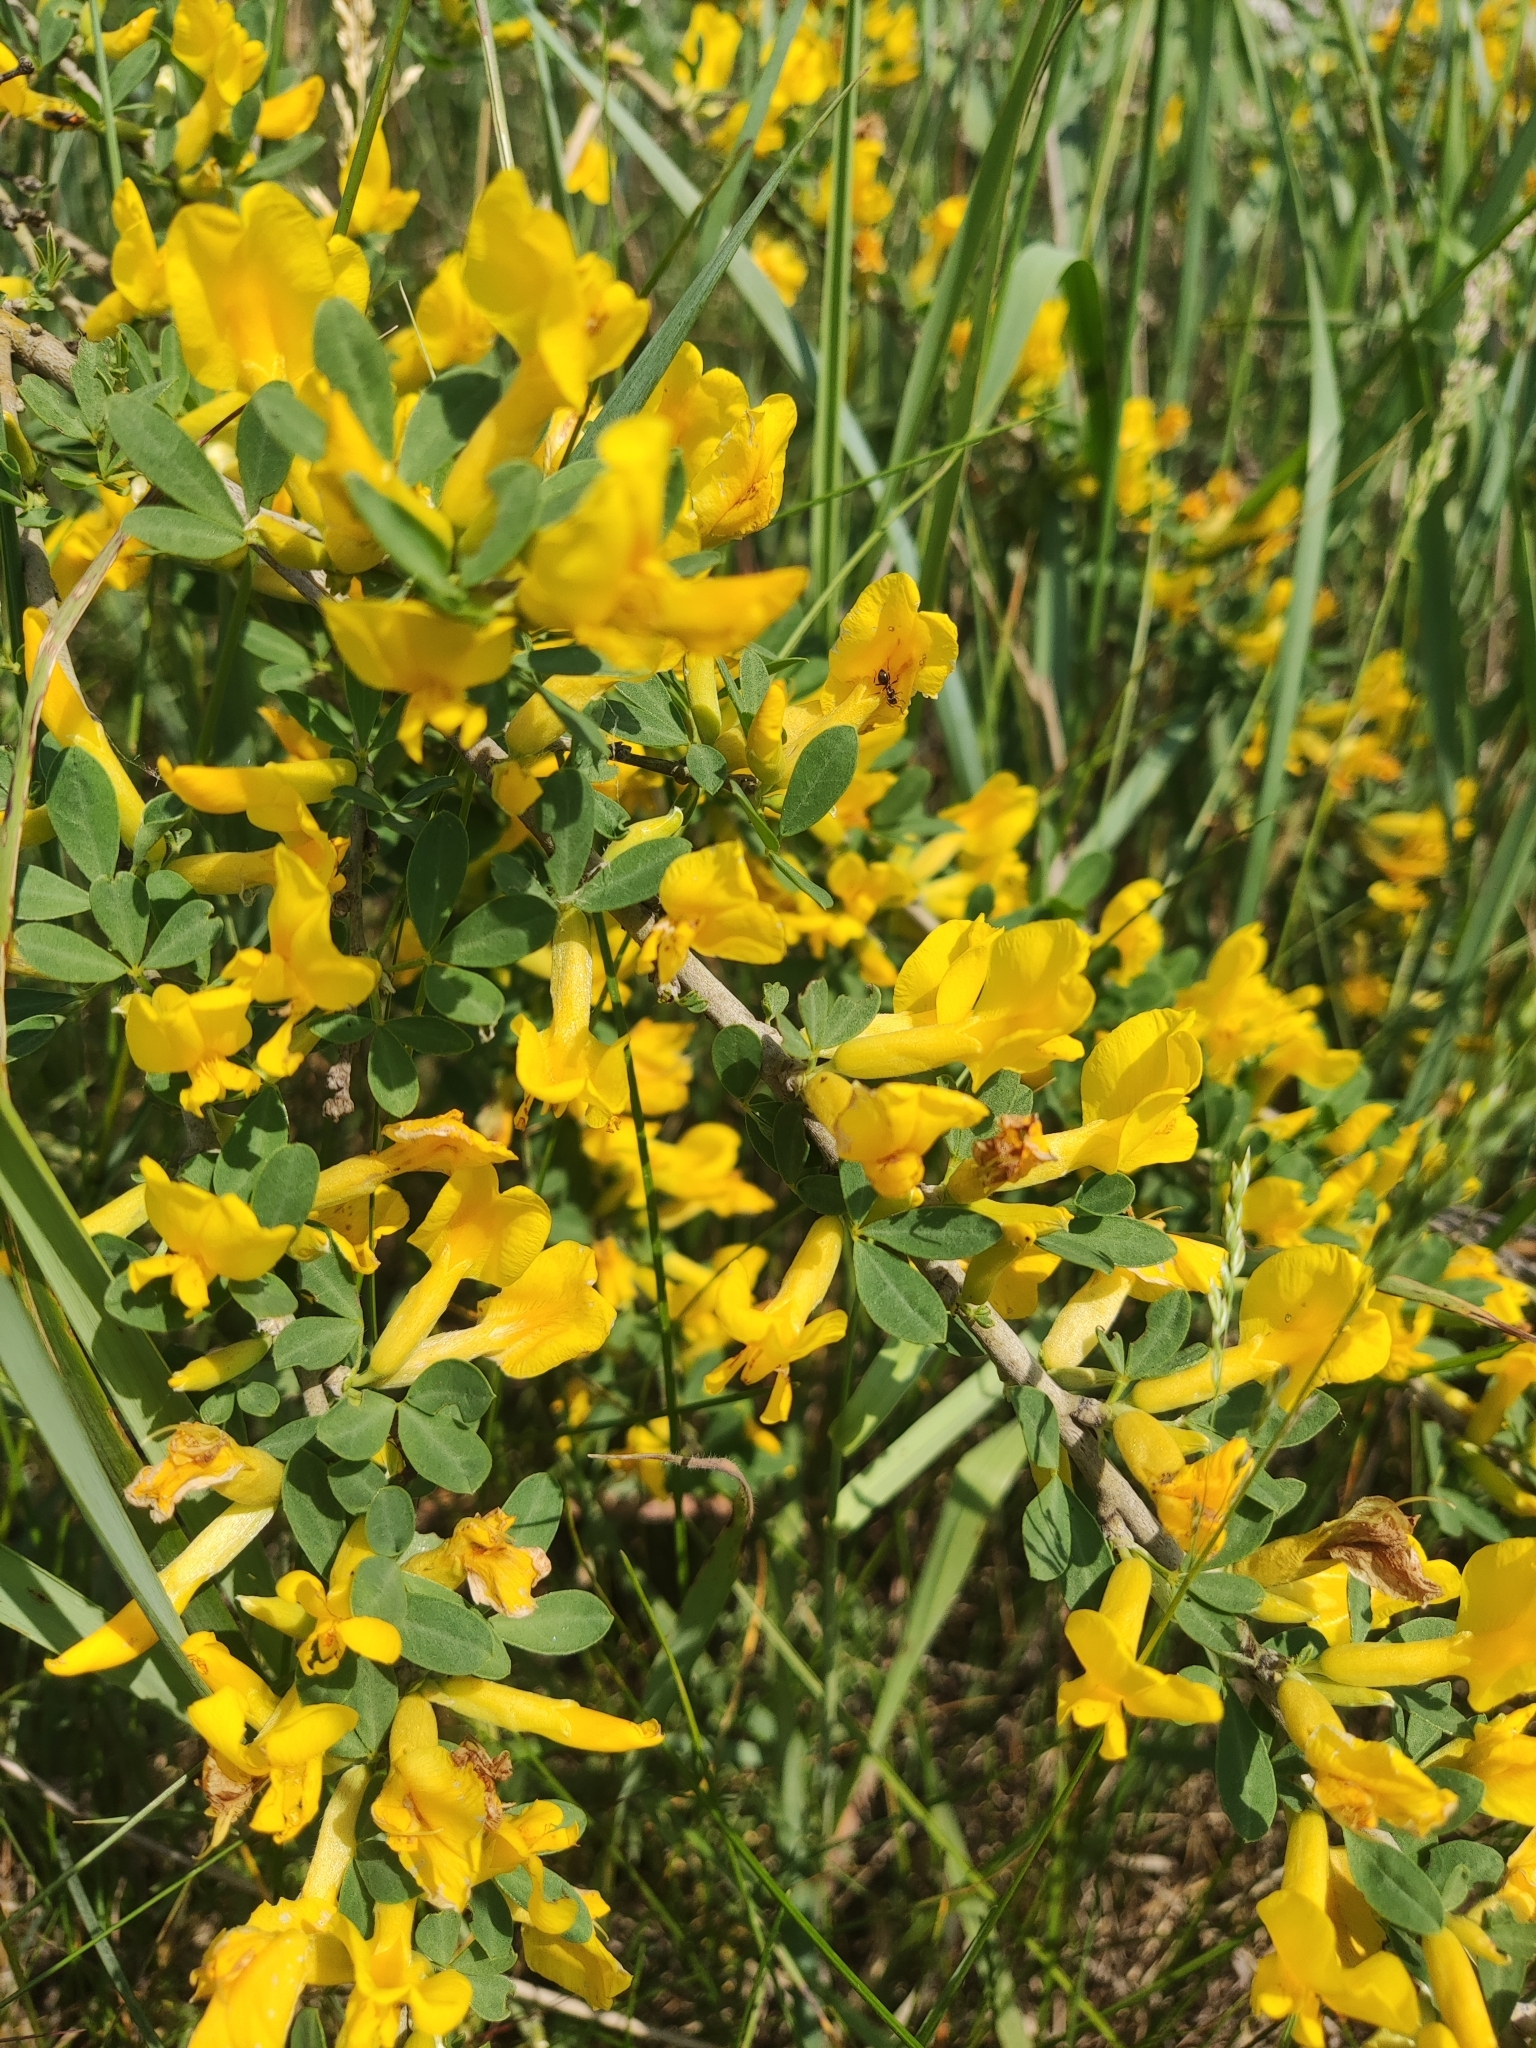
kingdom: Plantae
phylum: Tracheophyta
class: Magnoliopsida
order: Fabales
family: Fabaceae
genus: Chamaecytisus
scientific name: Chamaecytisus ruthenicus
